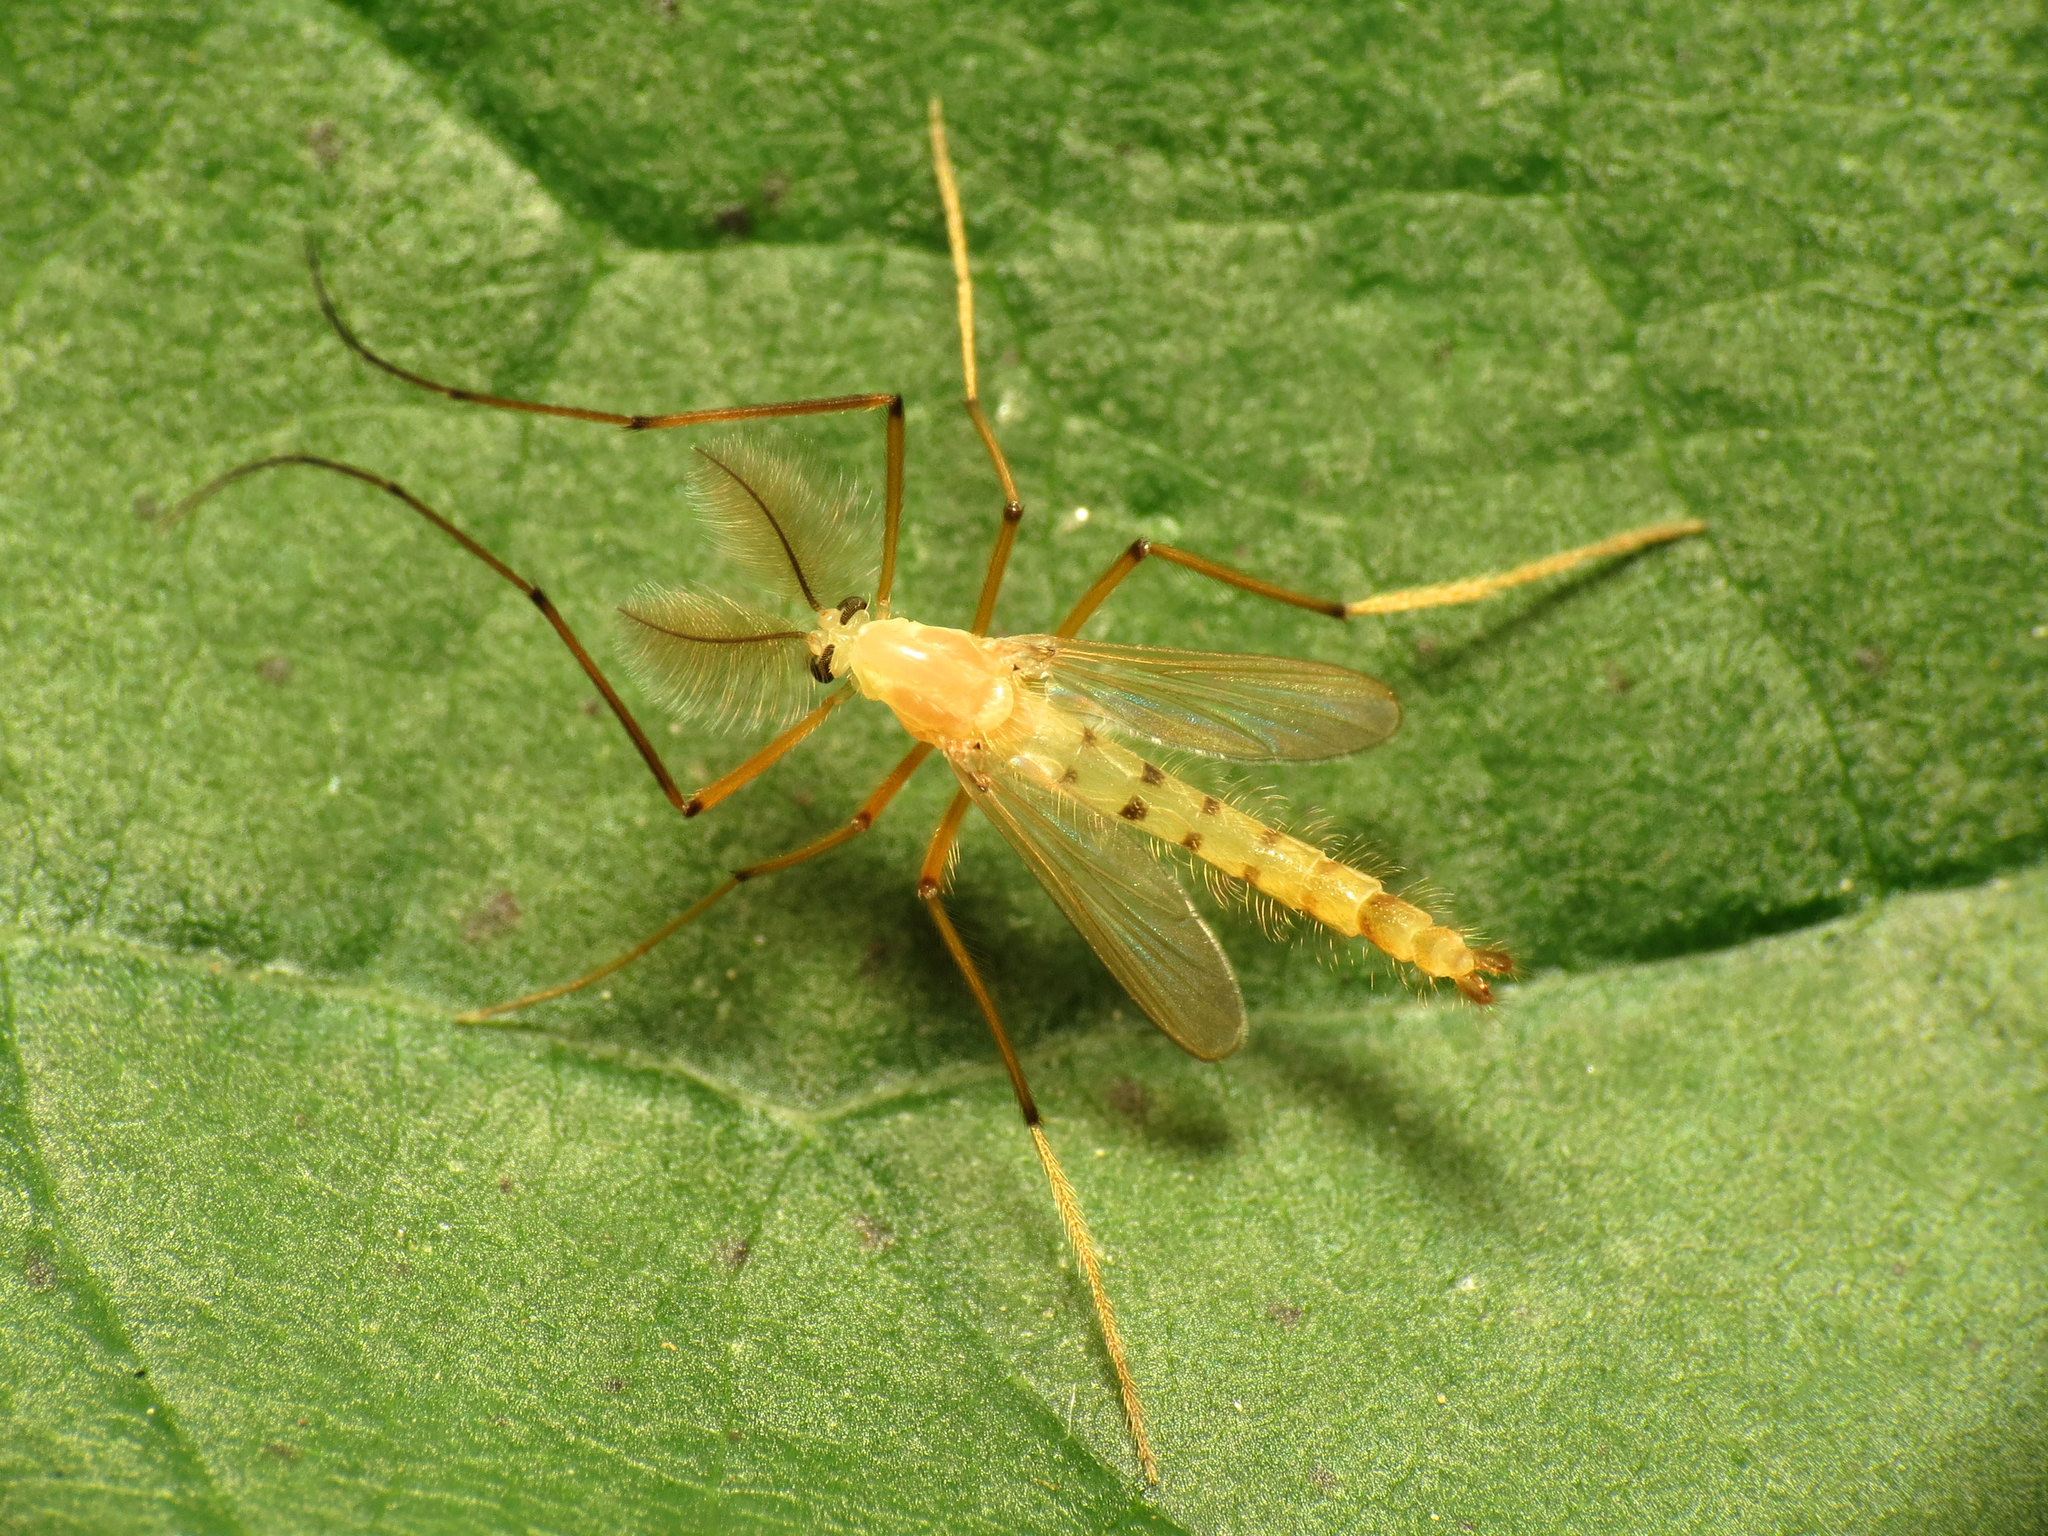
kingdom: Animalia
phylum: Arthropoda
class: Insecta
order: Diptera
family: Chironomidae
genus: Xylotopus
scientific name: Xylotopus par
